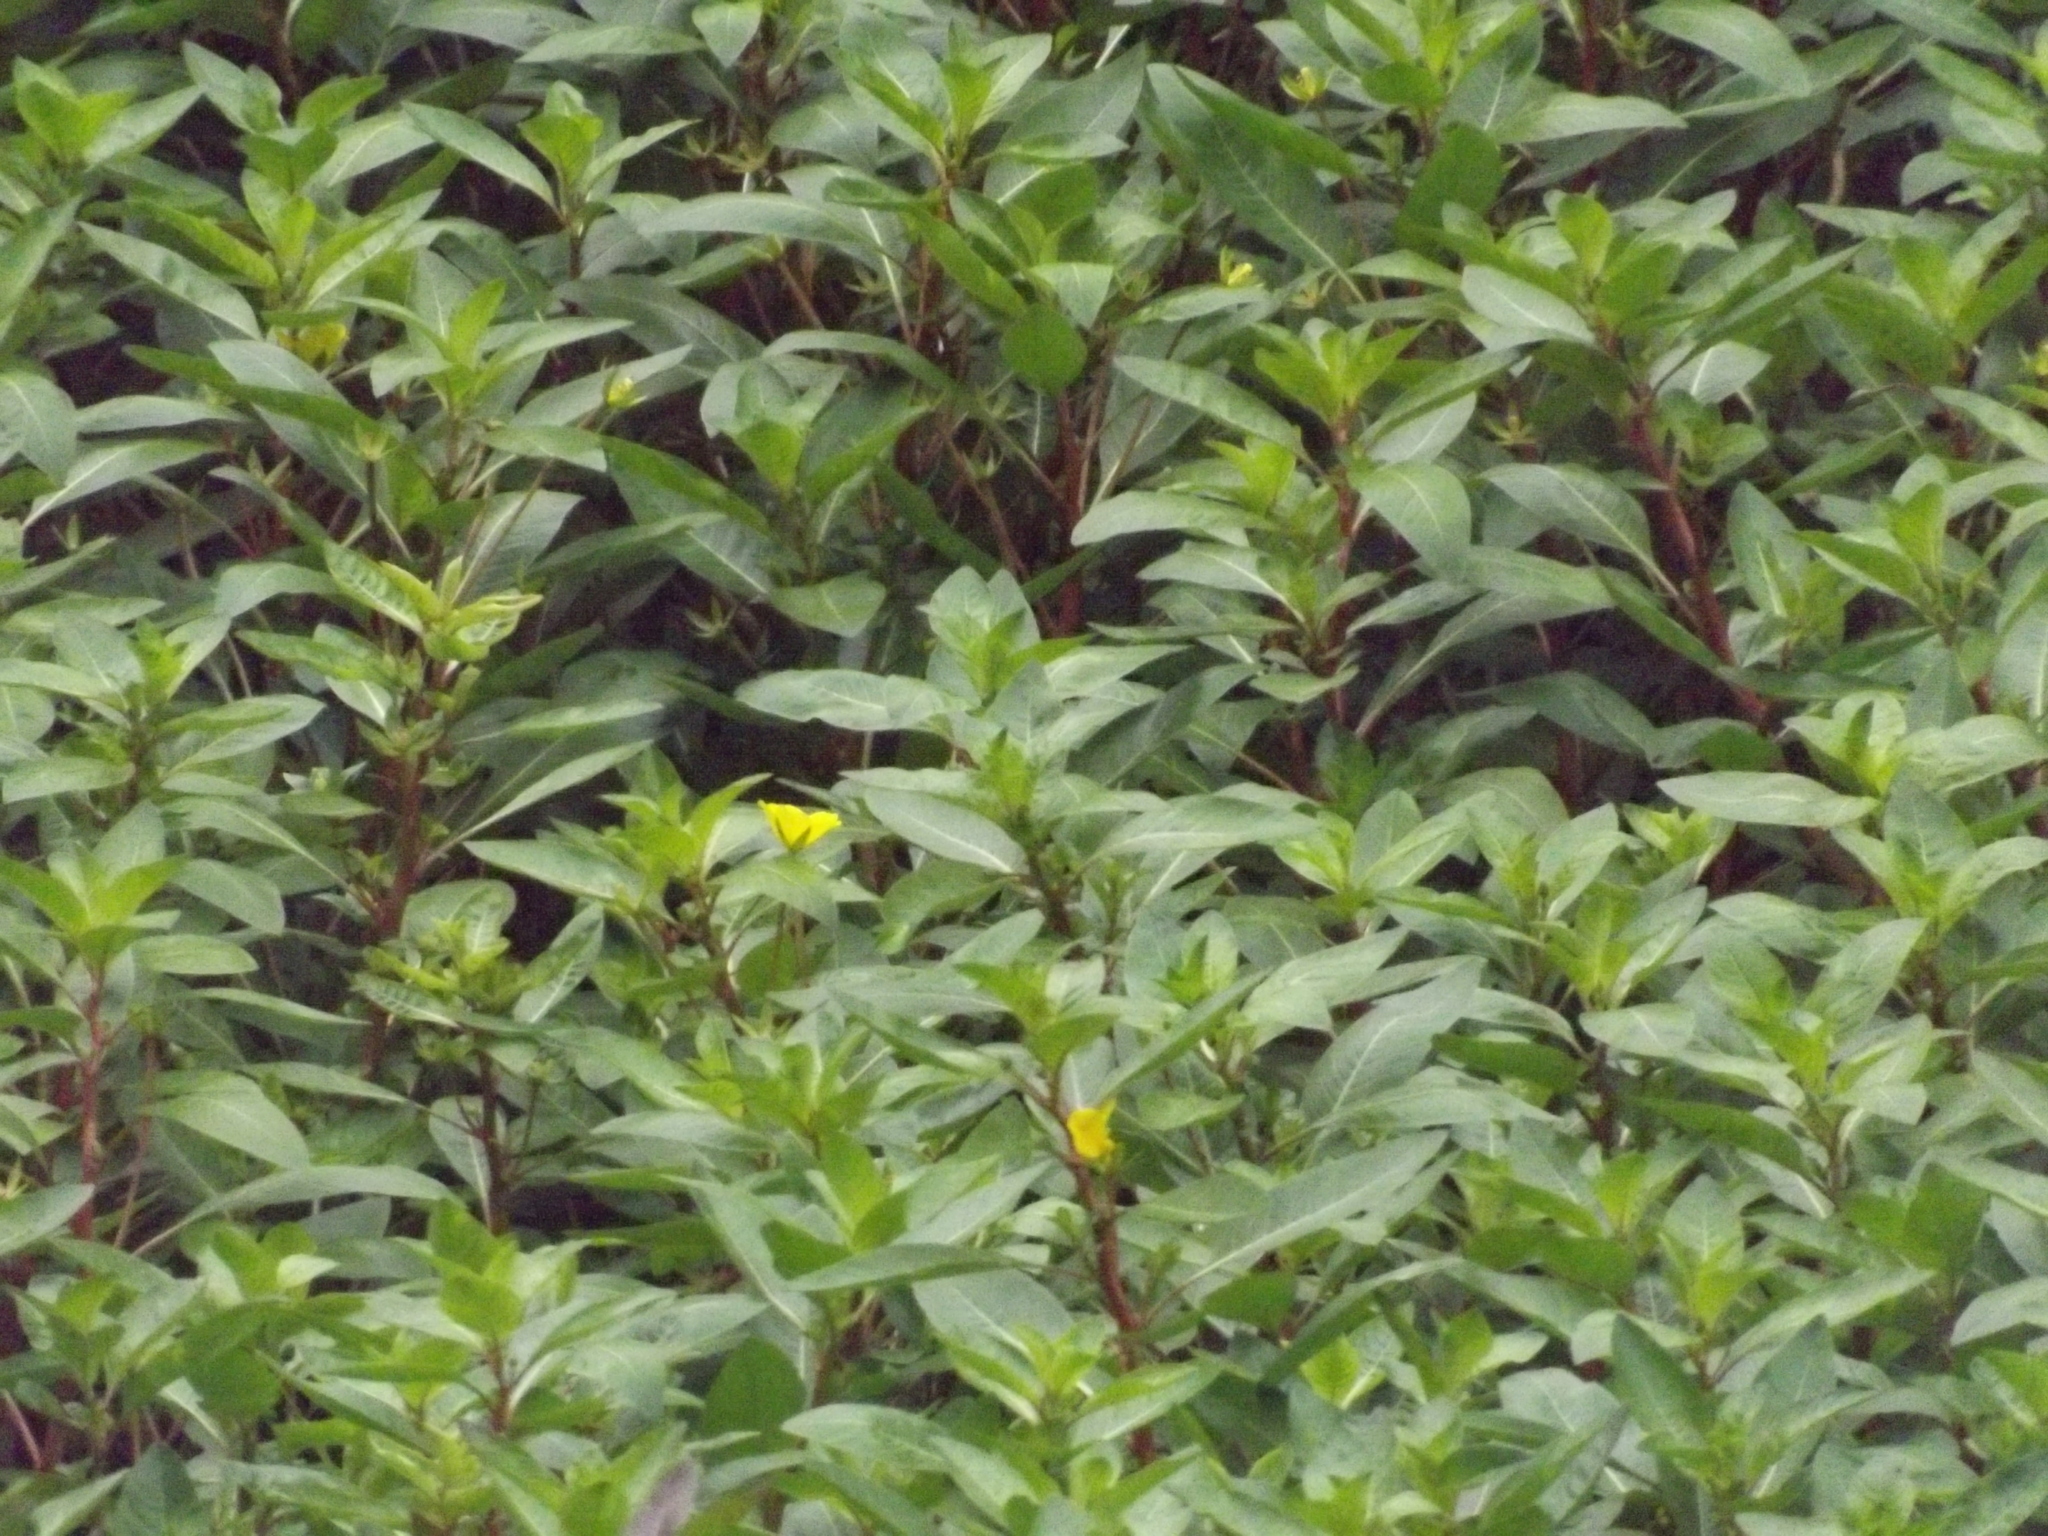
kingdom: Plantae
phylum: Tracheophyta
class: Magnoliopsida
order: Myrtales
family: Onagraceae
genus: Ludwigia
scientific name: Ludwigia peploides
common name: Floating primrose-willow
